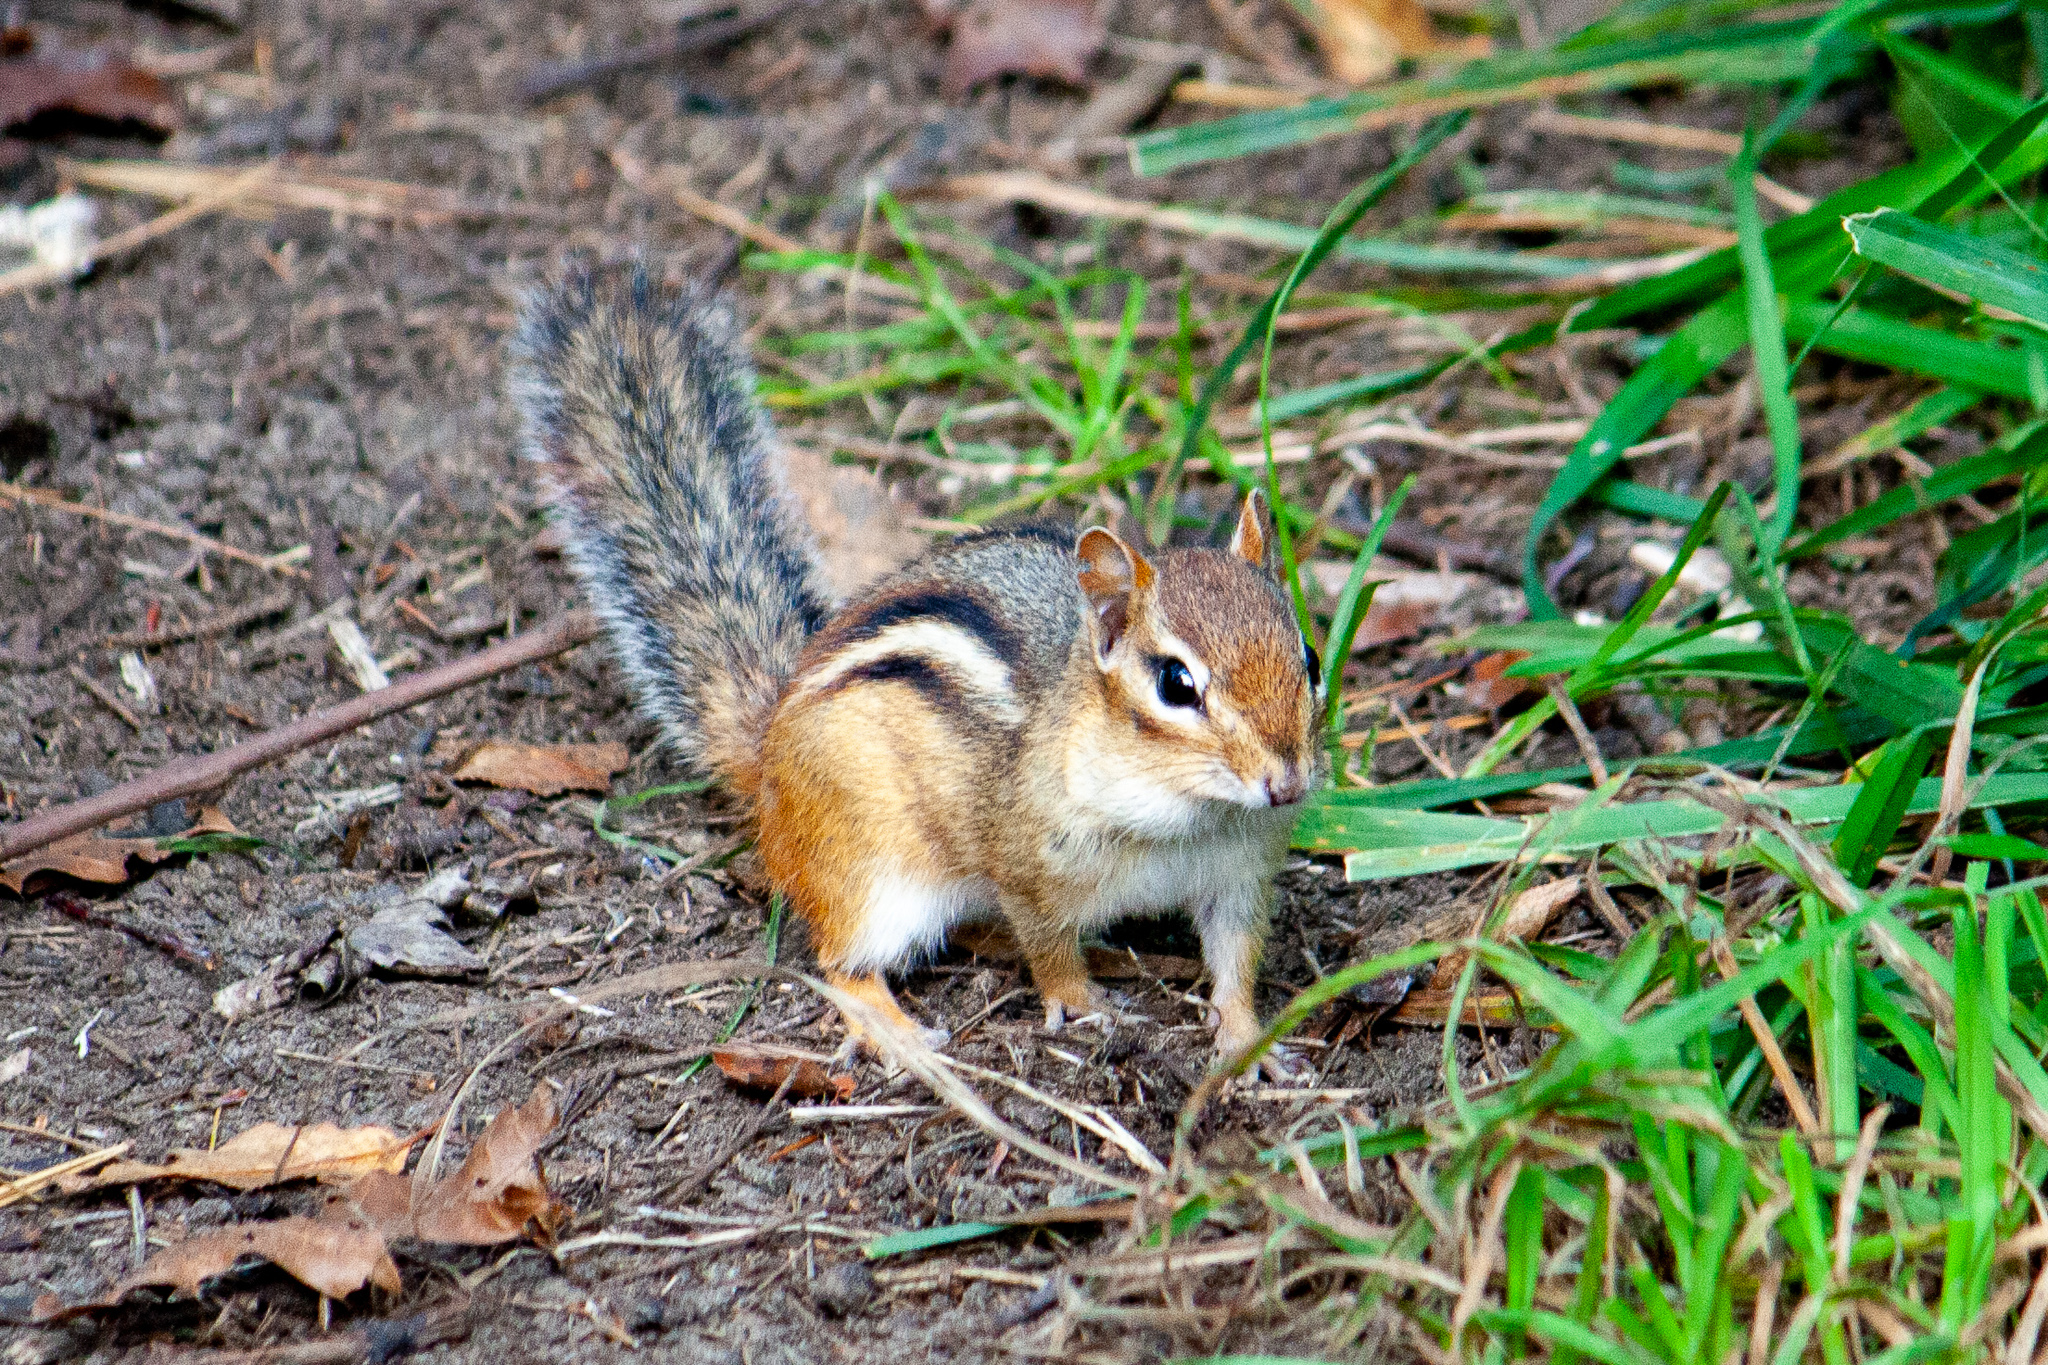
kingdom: Animalia
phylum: Chordata
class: Mammalia
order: Rodentia
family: Sciuridae
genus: Tamias
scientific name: Tamias striatus
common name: Eastern chipmunk
